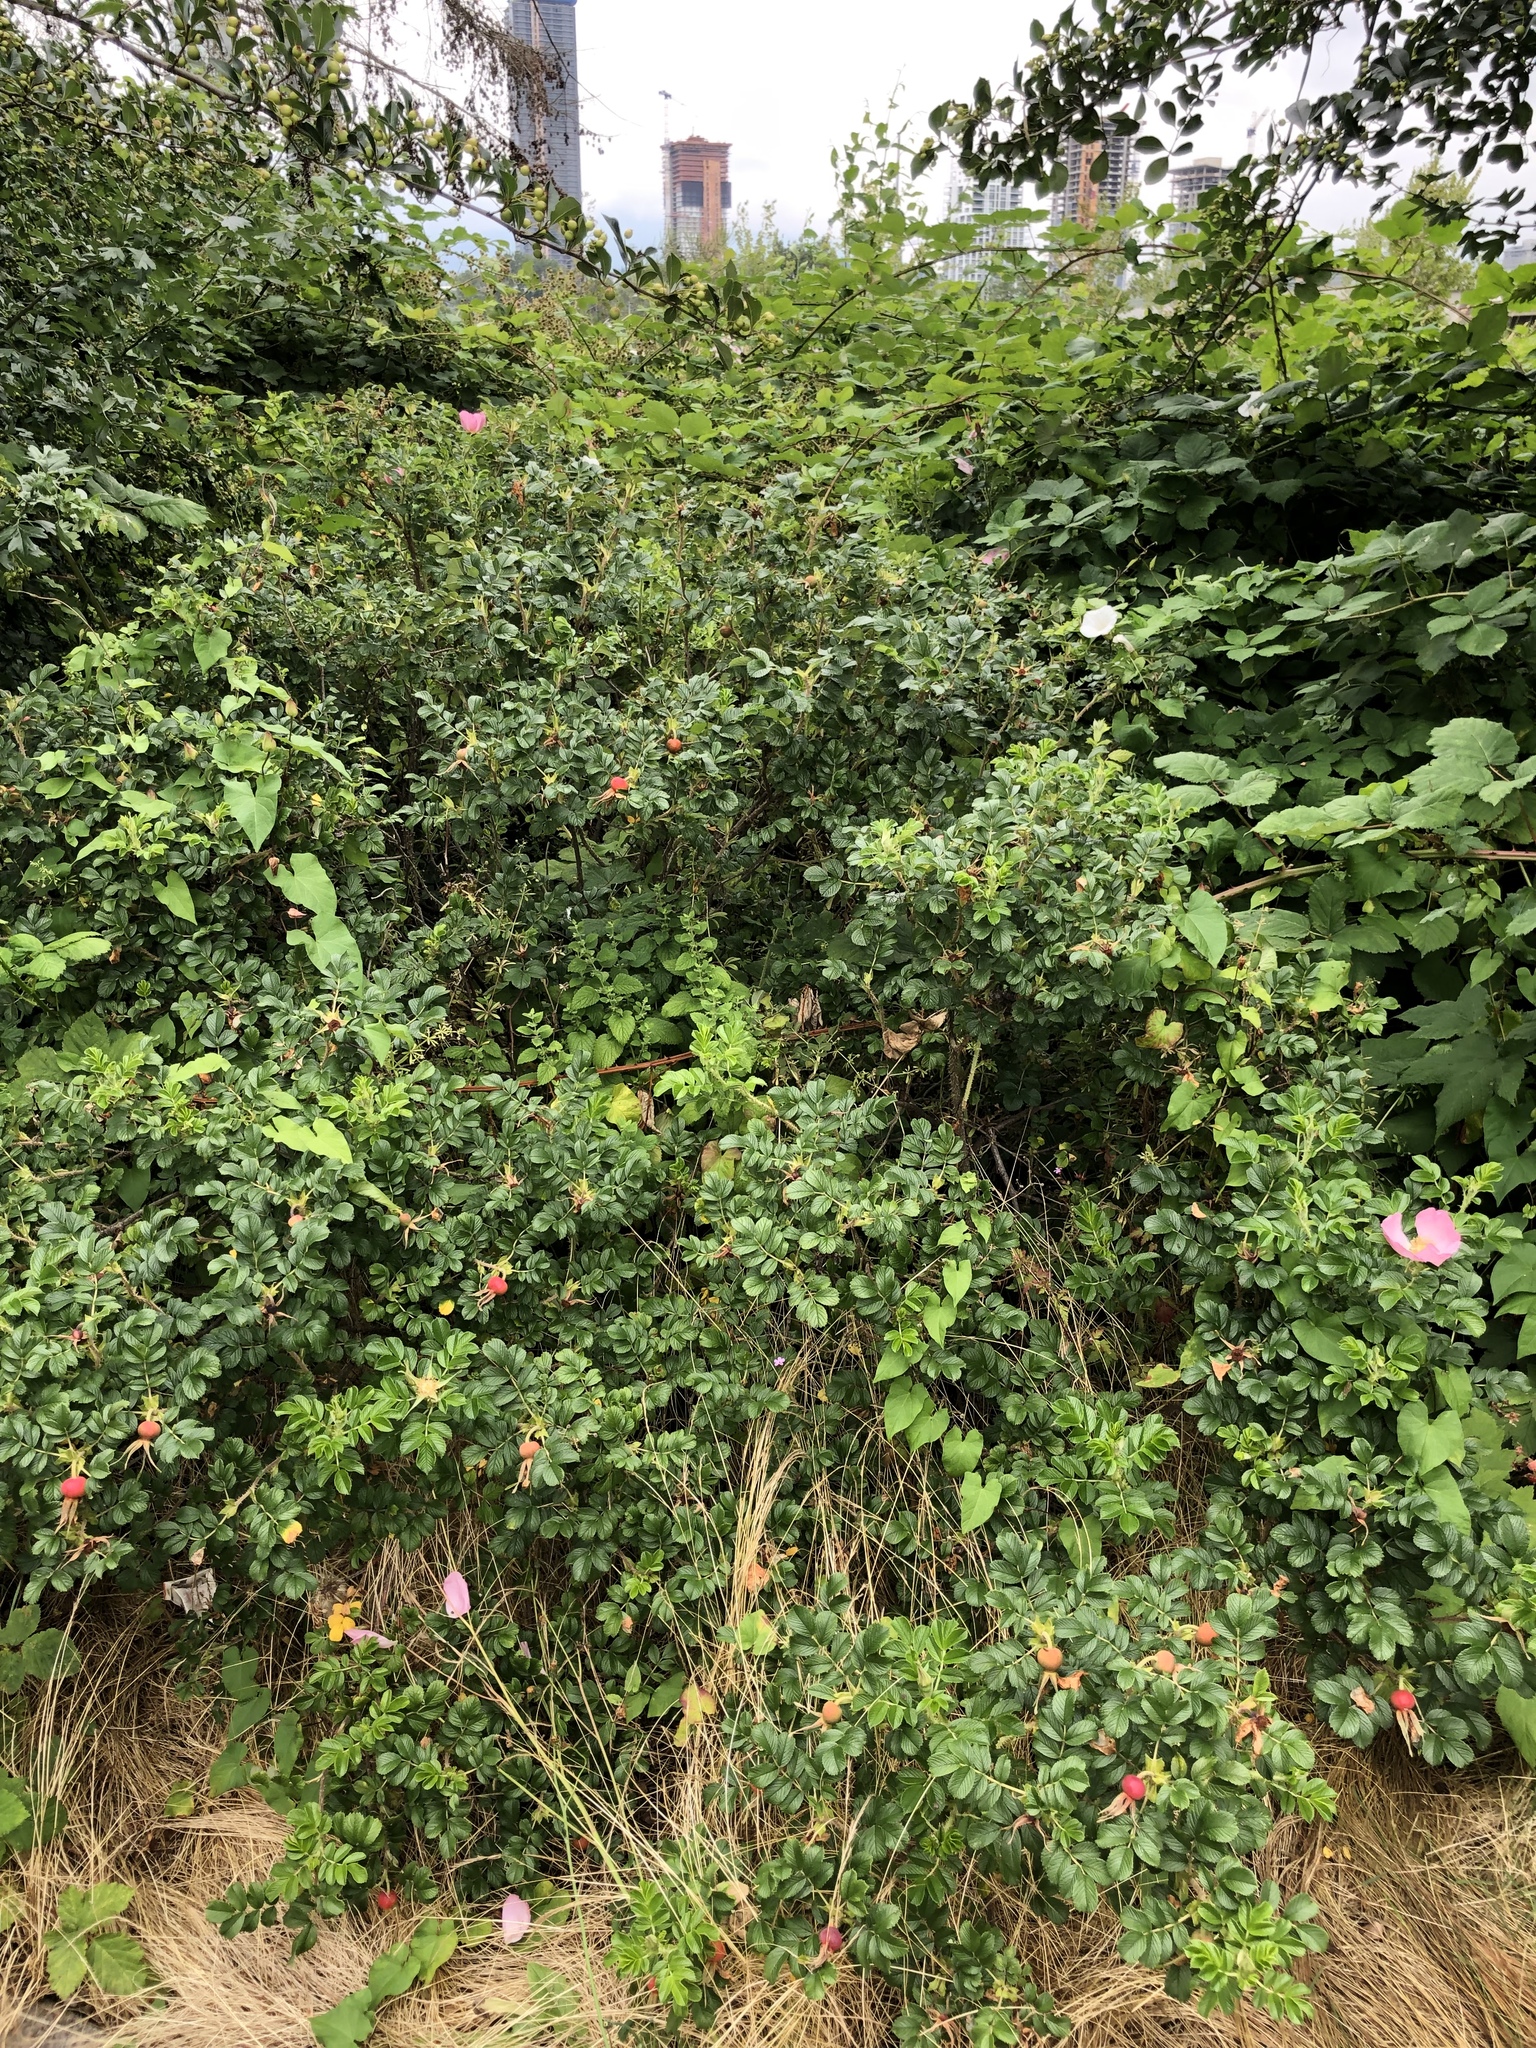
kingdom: Plantae
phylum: Tracheophyta
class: Magnoliopsida
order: Rosales
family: Rosaceae
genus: Rosa
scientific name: Rosa rugosa
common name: Japanese rose
